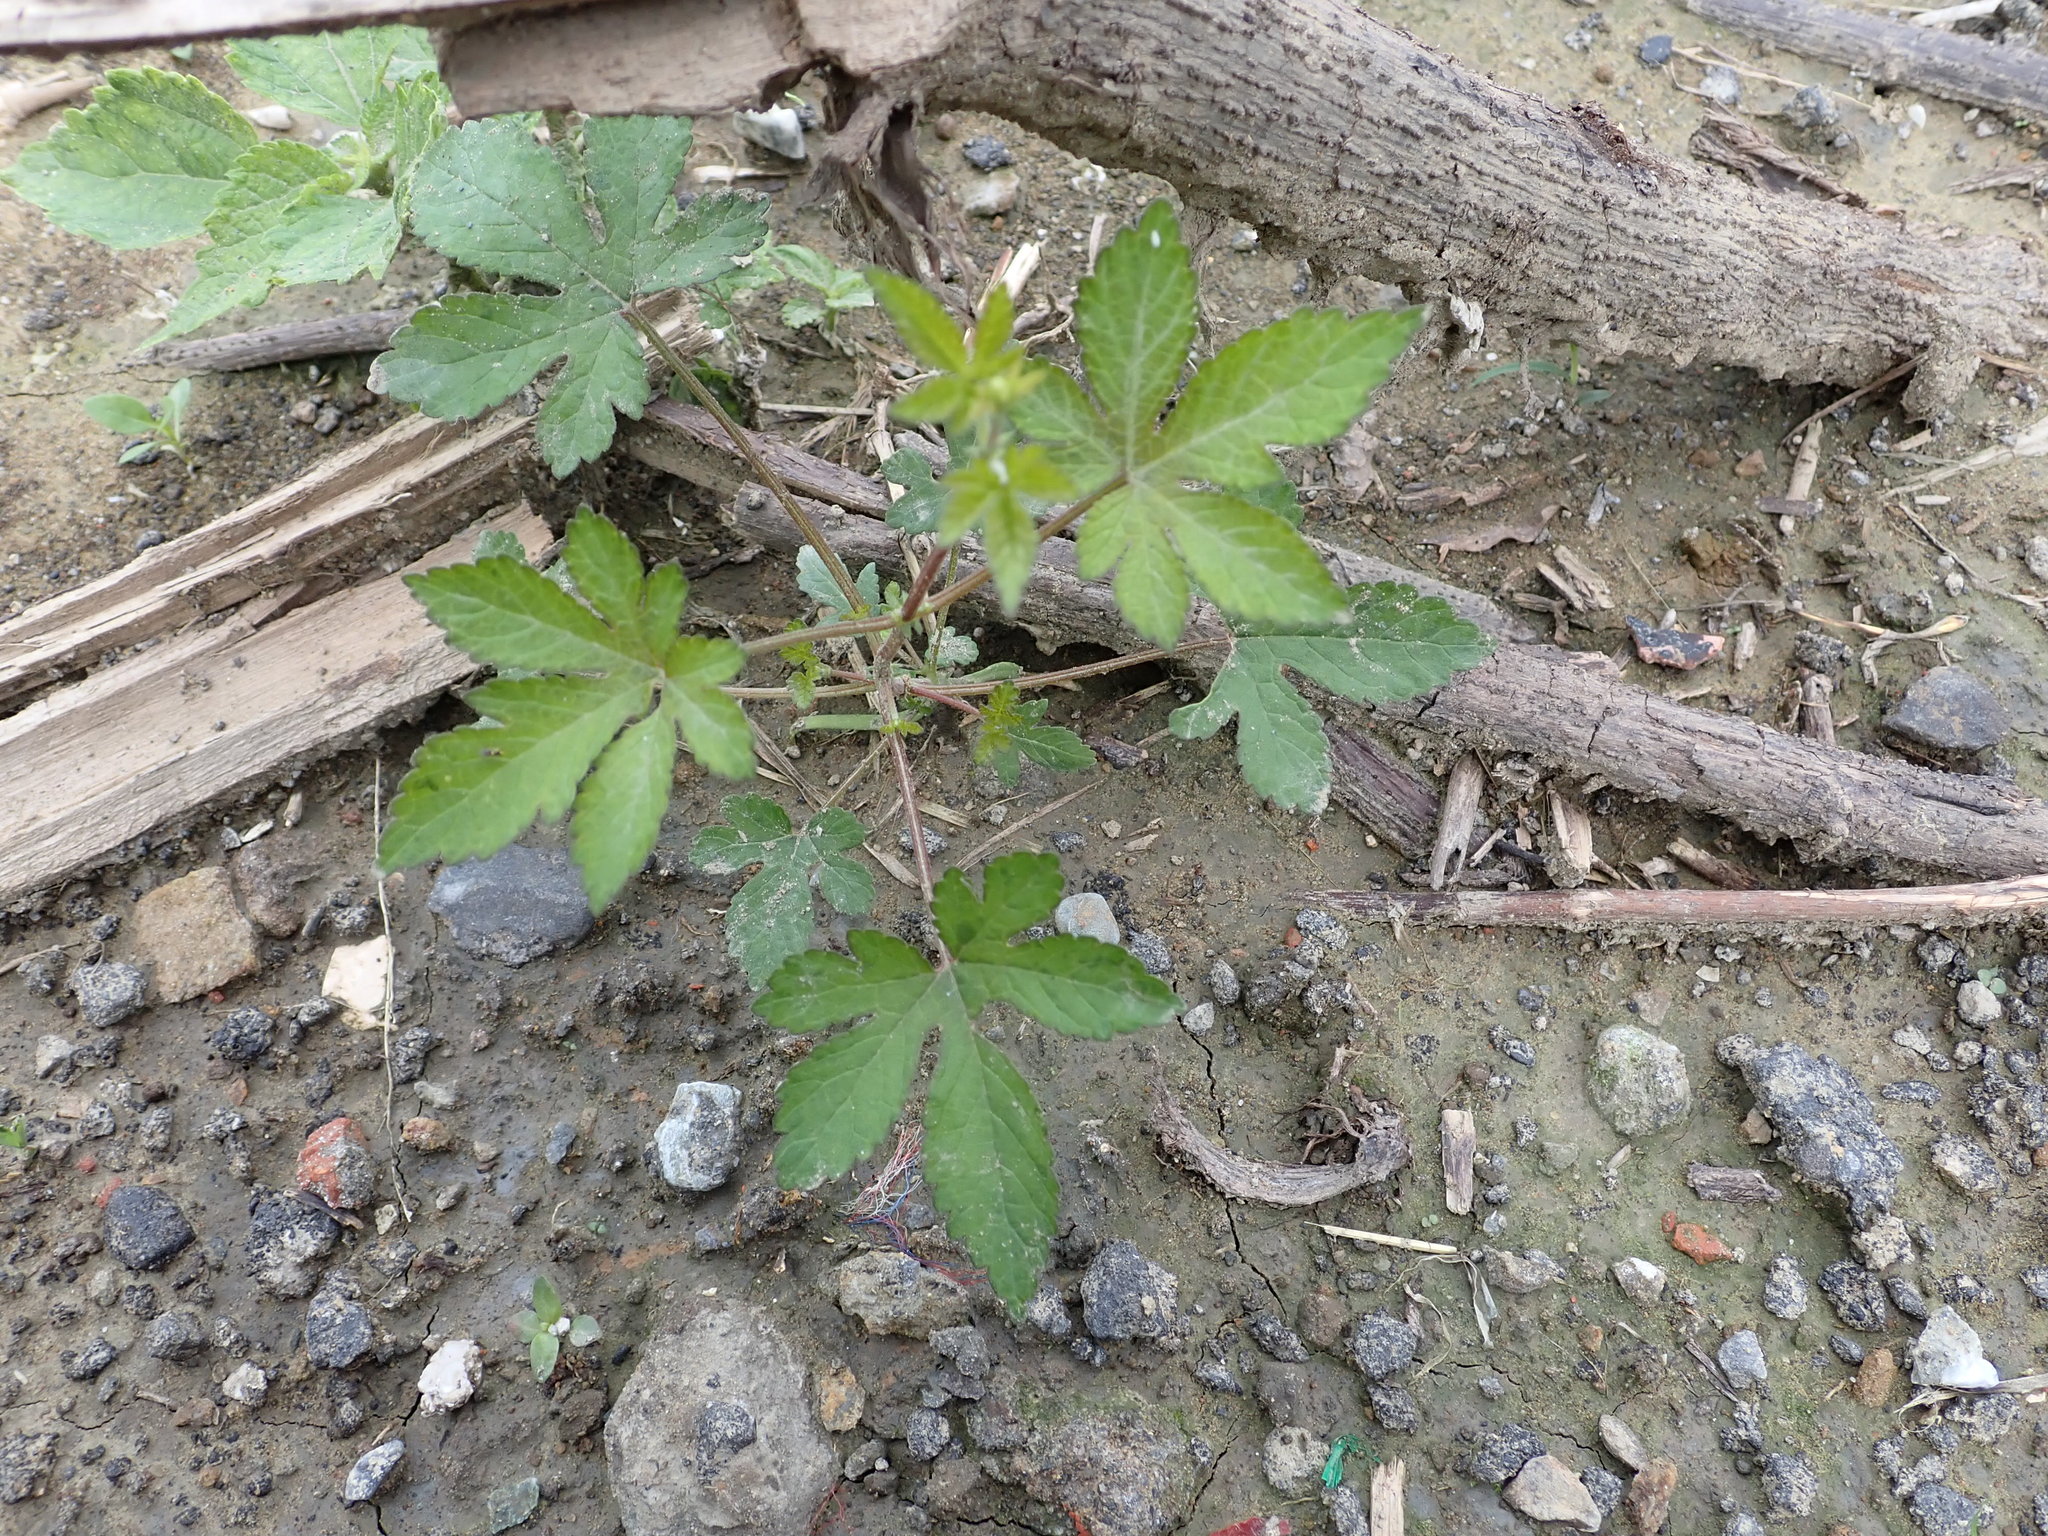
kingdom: Plantae
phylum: Tracheophyta
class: Magnoliopsida
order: Rosales
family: Cannabaceae
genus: Humulus
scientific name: Humulus scandens
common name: Japanese hop
